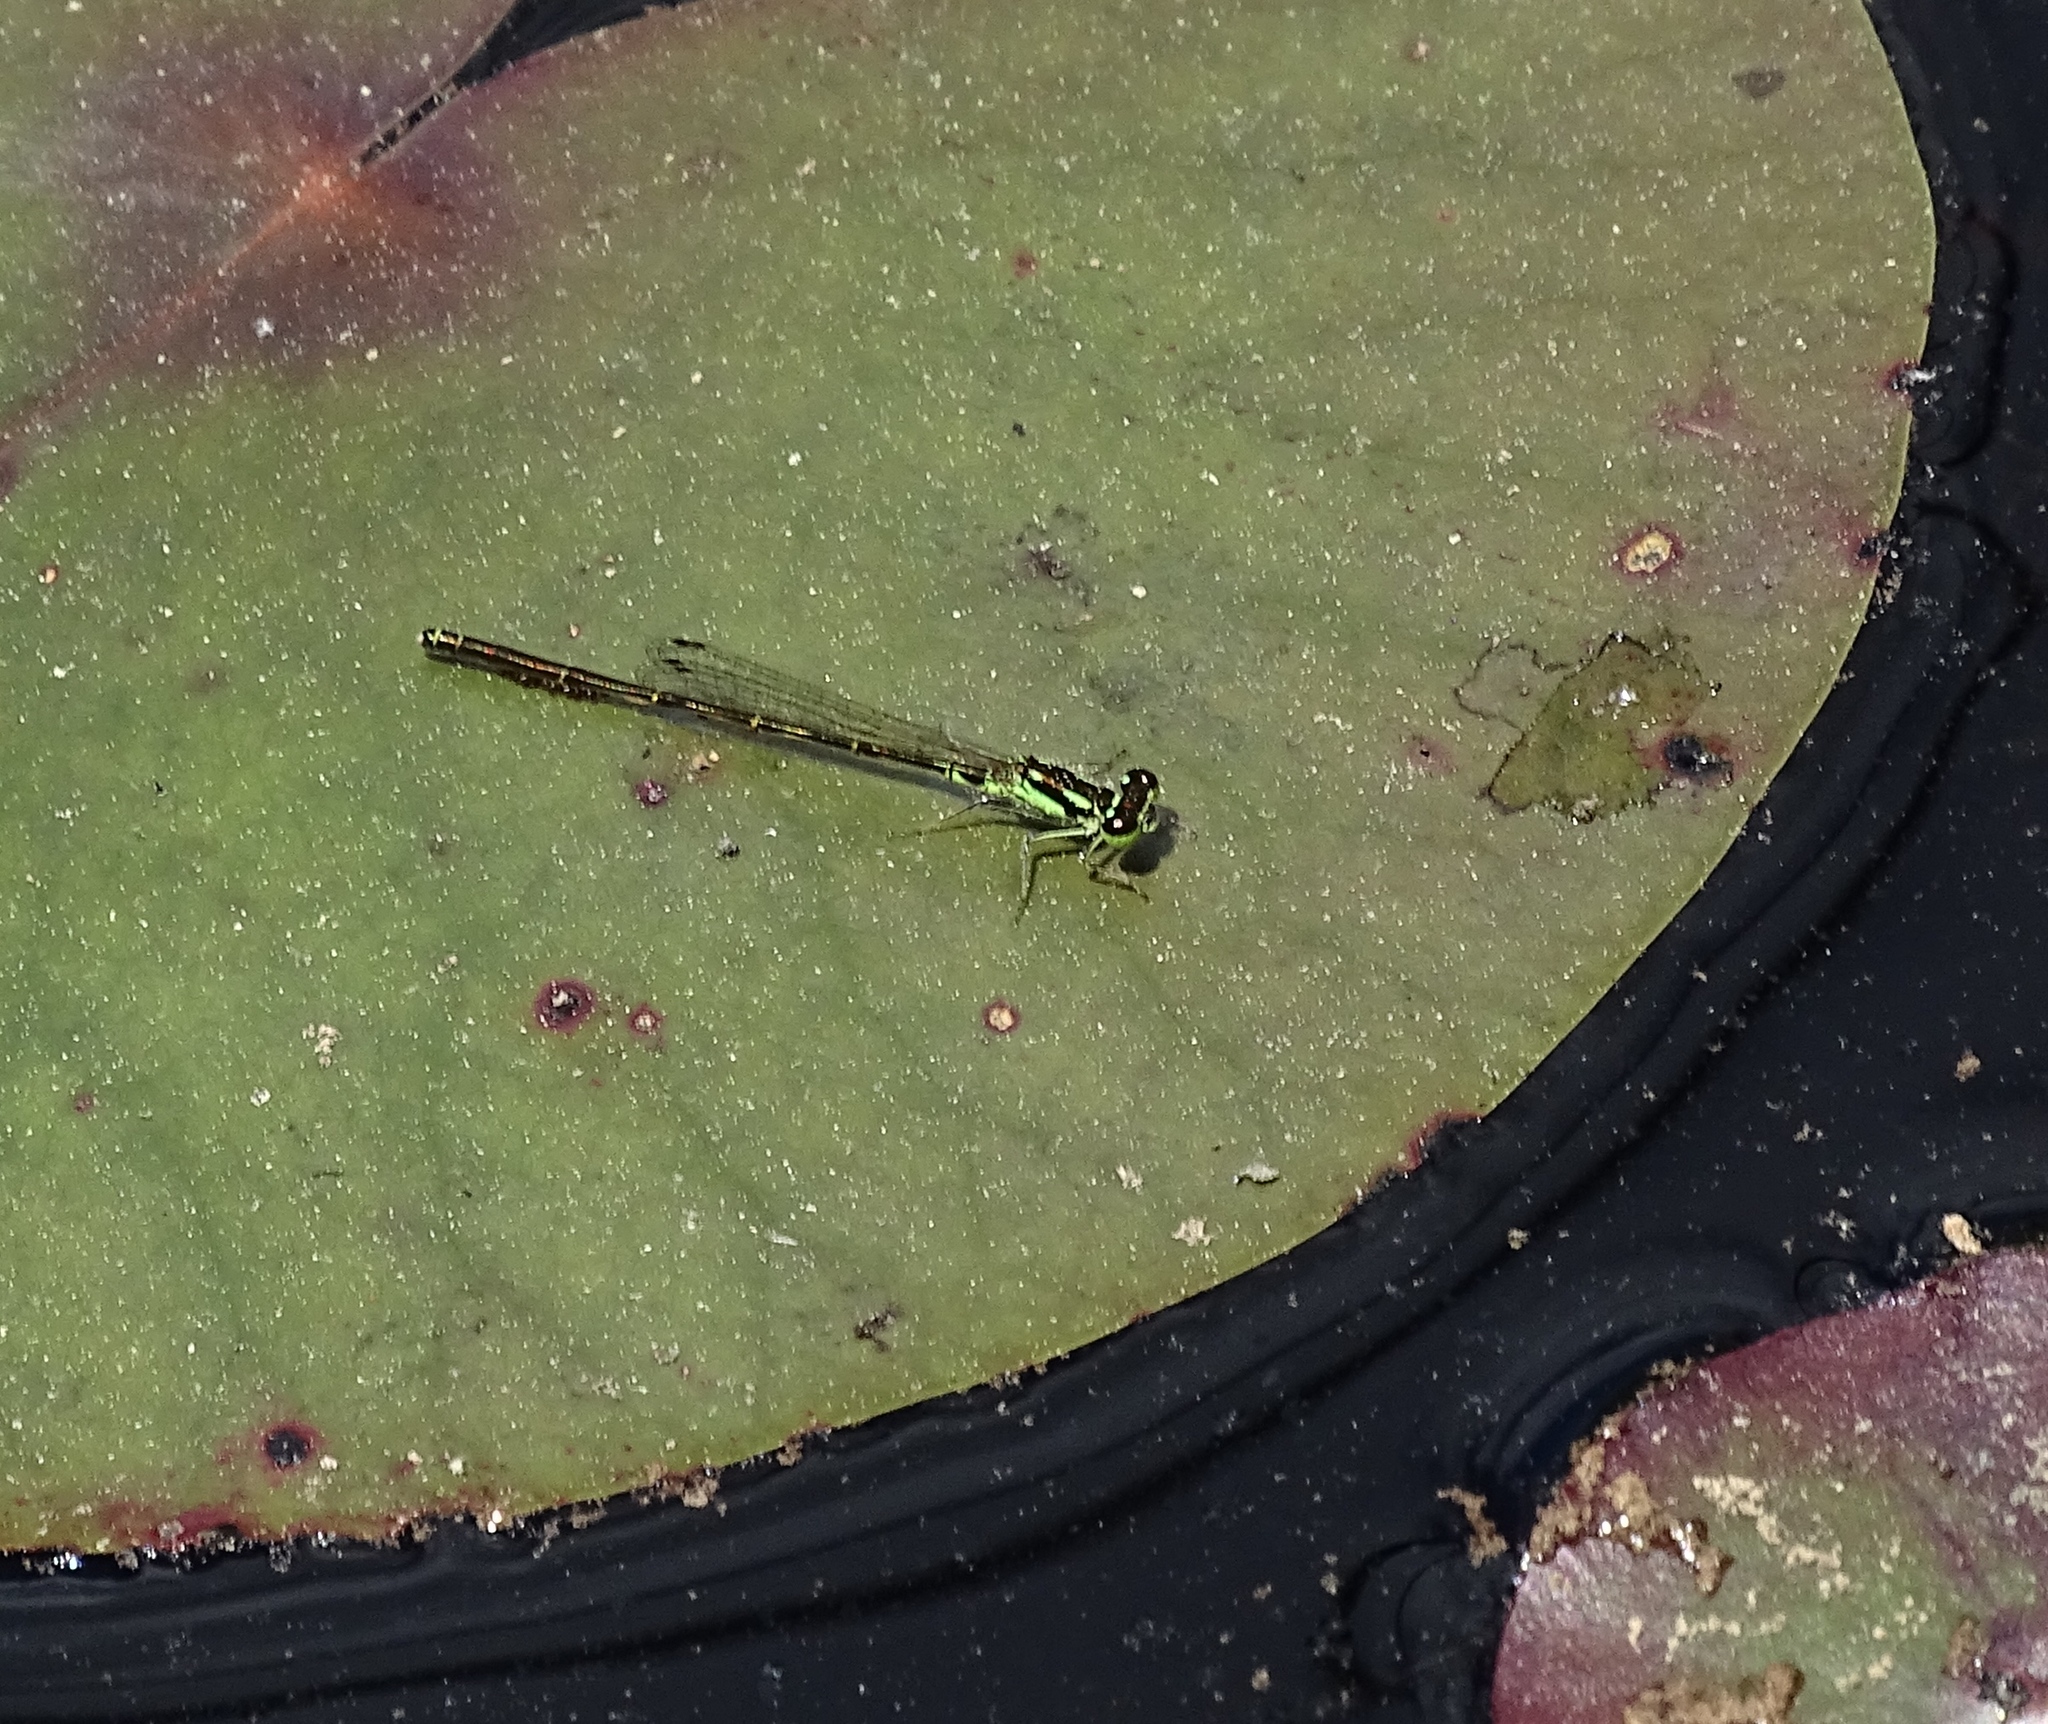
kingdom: Animalia
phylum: Arthropoda
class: Insecta
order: Odonata
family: Coenagrionidae
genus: Ischnura
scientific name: Ischnura posita
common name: Fragile forktail
